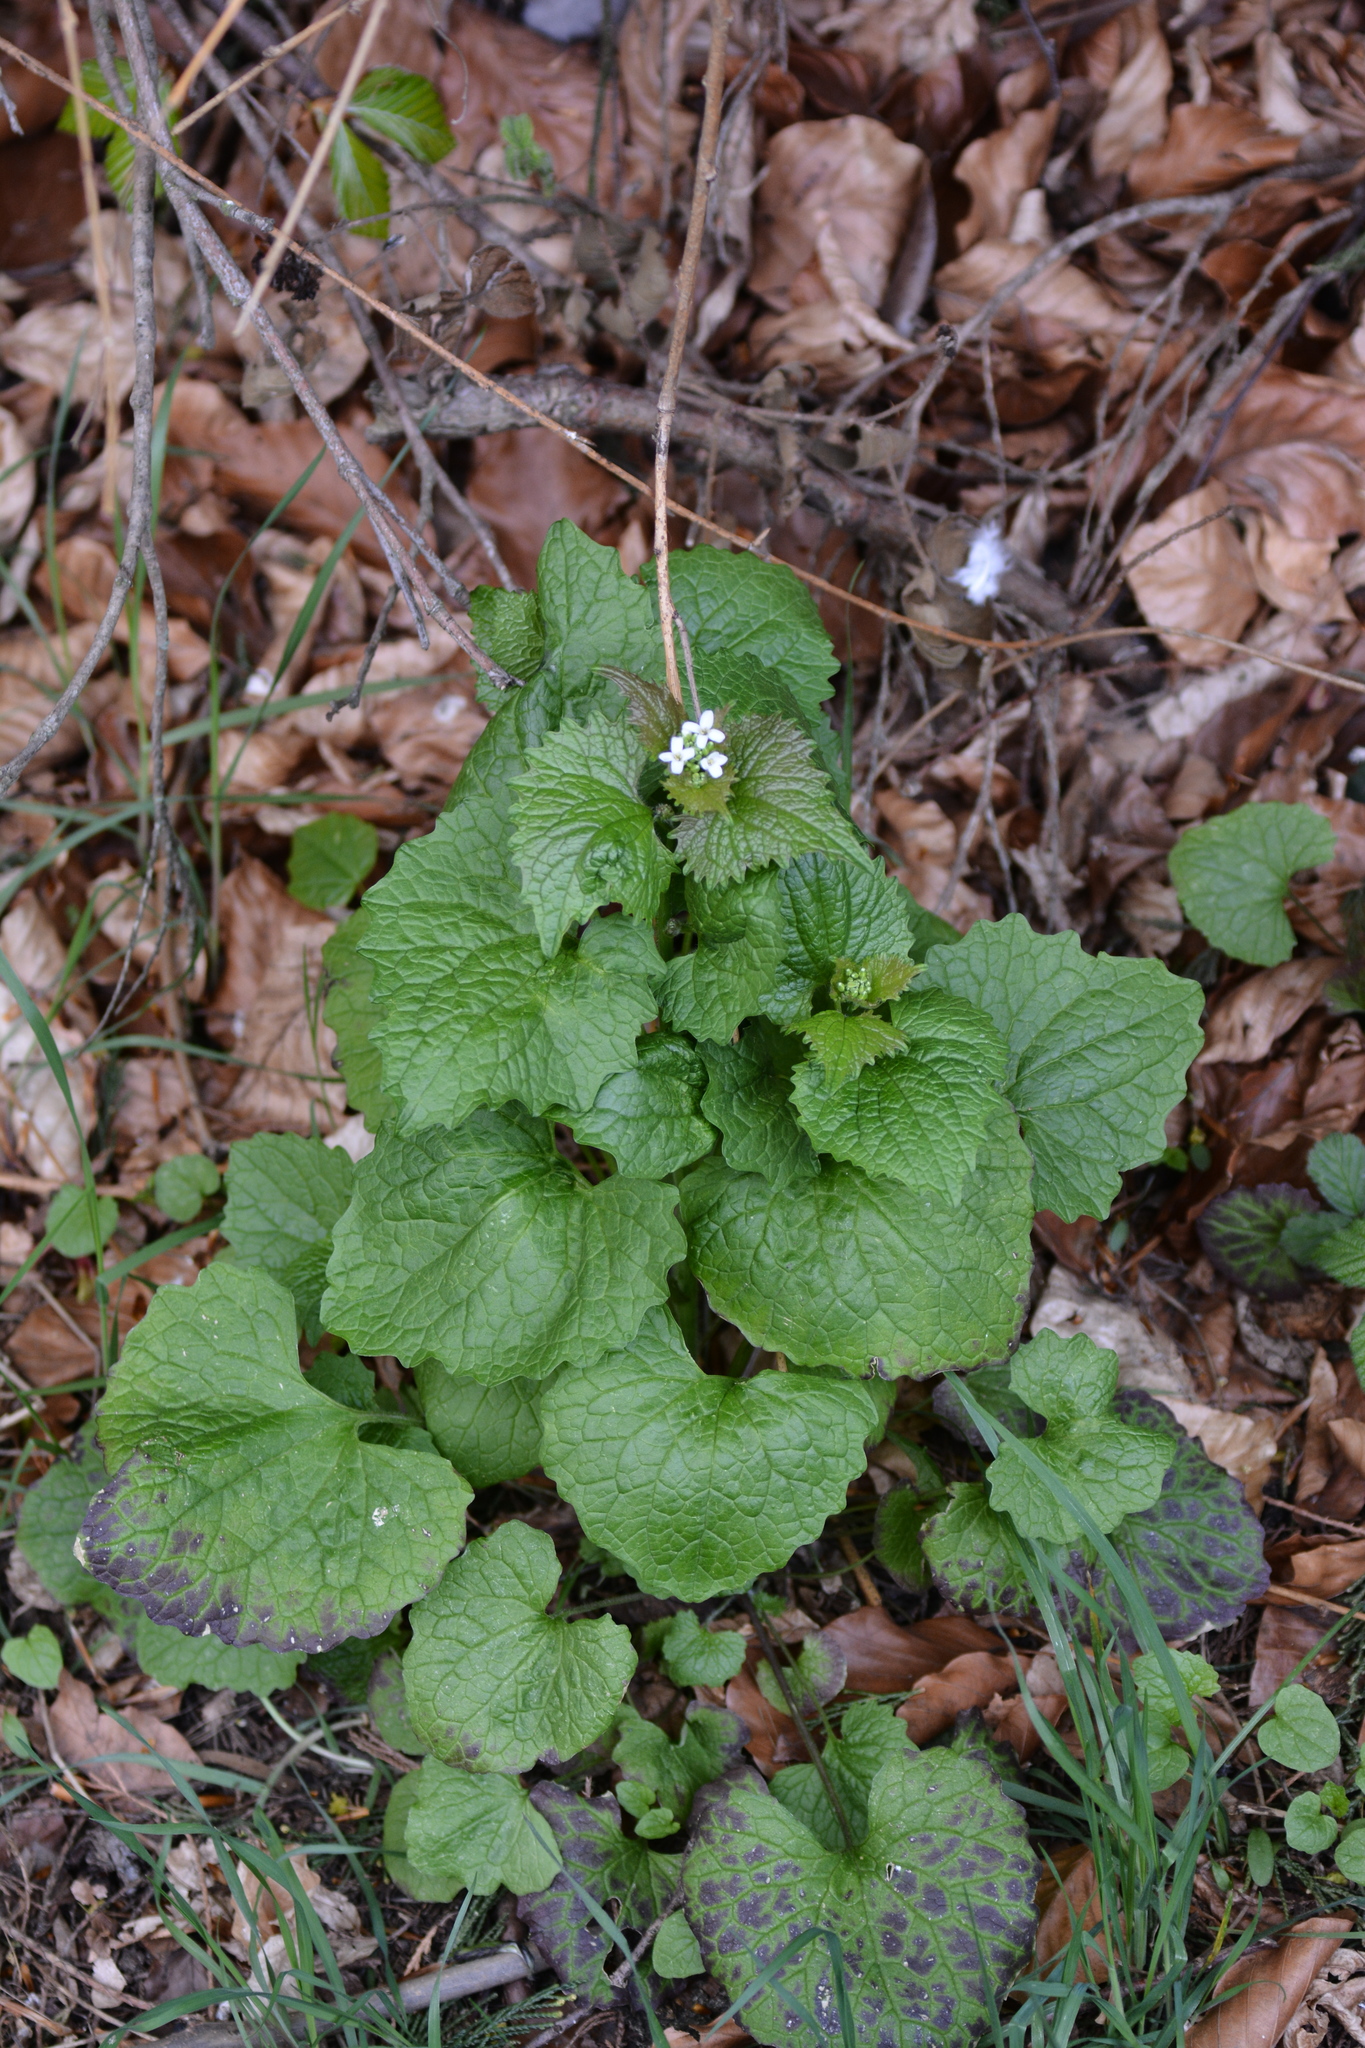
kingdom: Plantae
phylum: Tracheophyta
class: Magnoliopsida
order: Brassicales
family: Brassicaceae
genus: Alliaria
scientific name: Alliaria petiolata
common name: Garlic mustard
